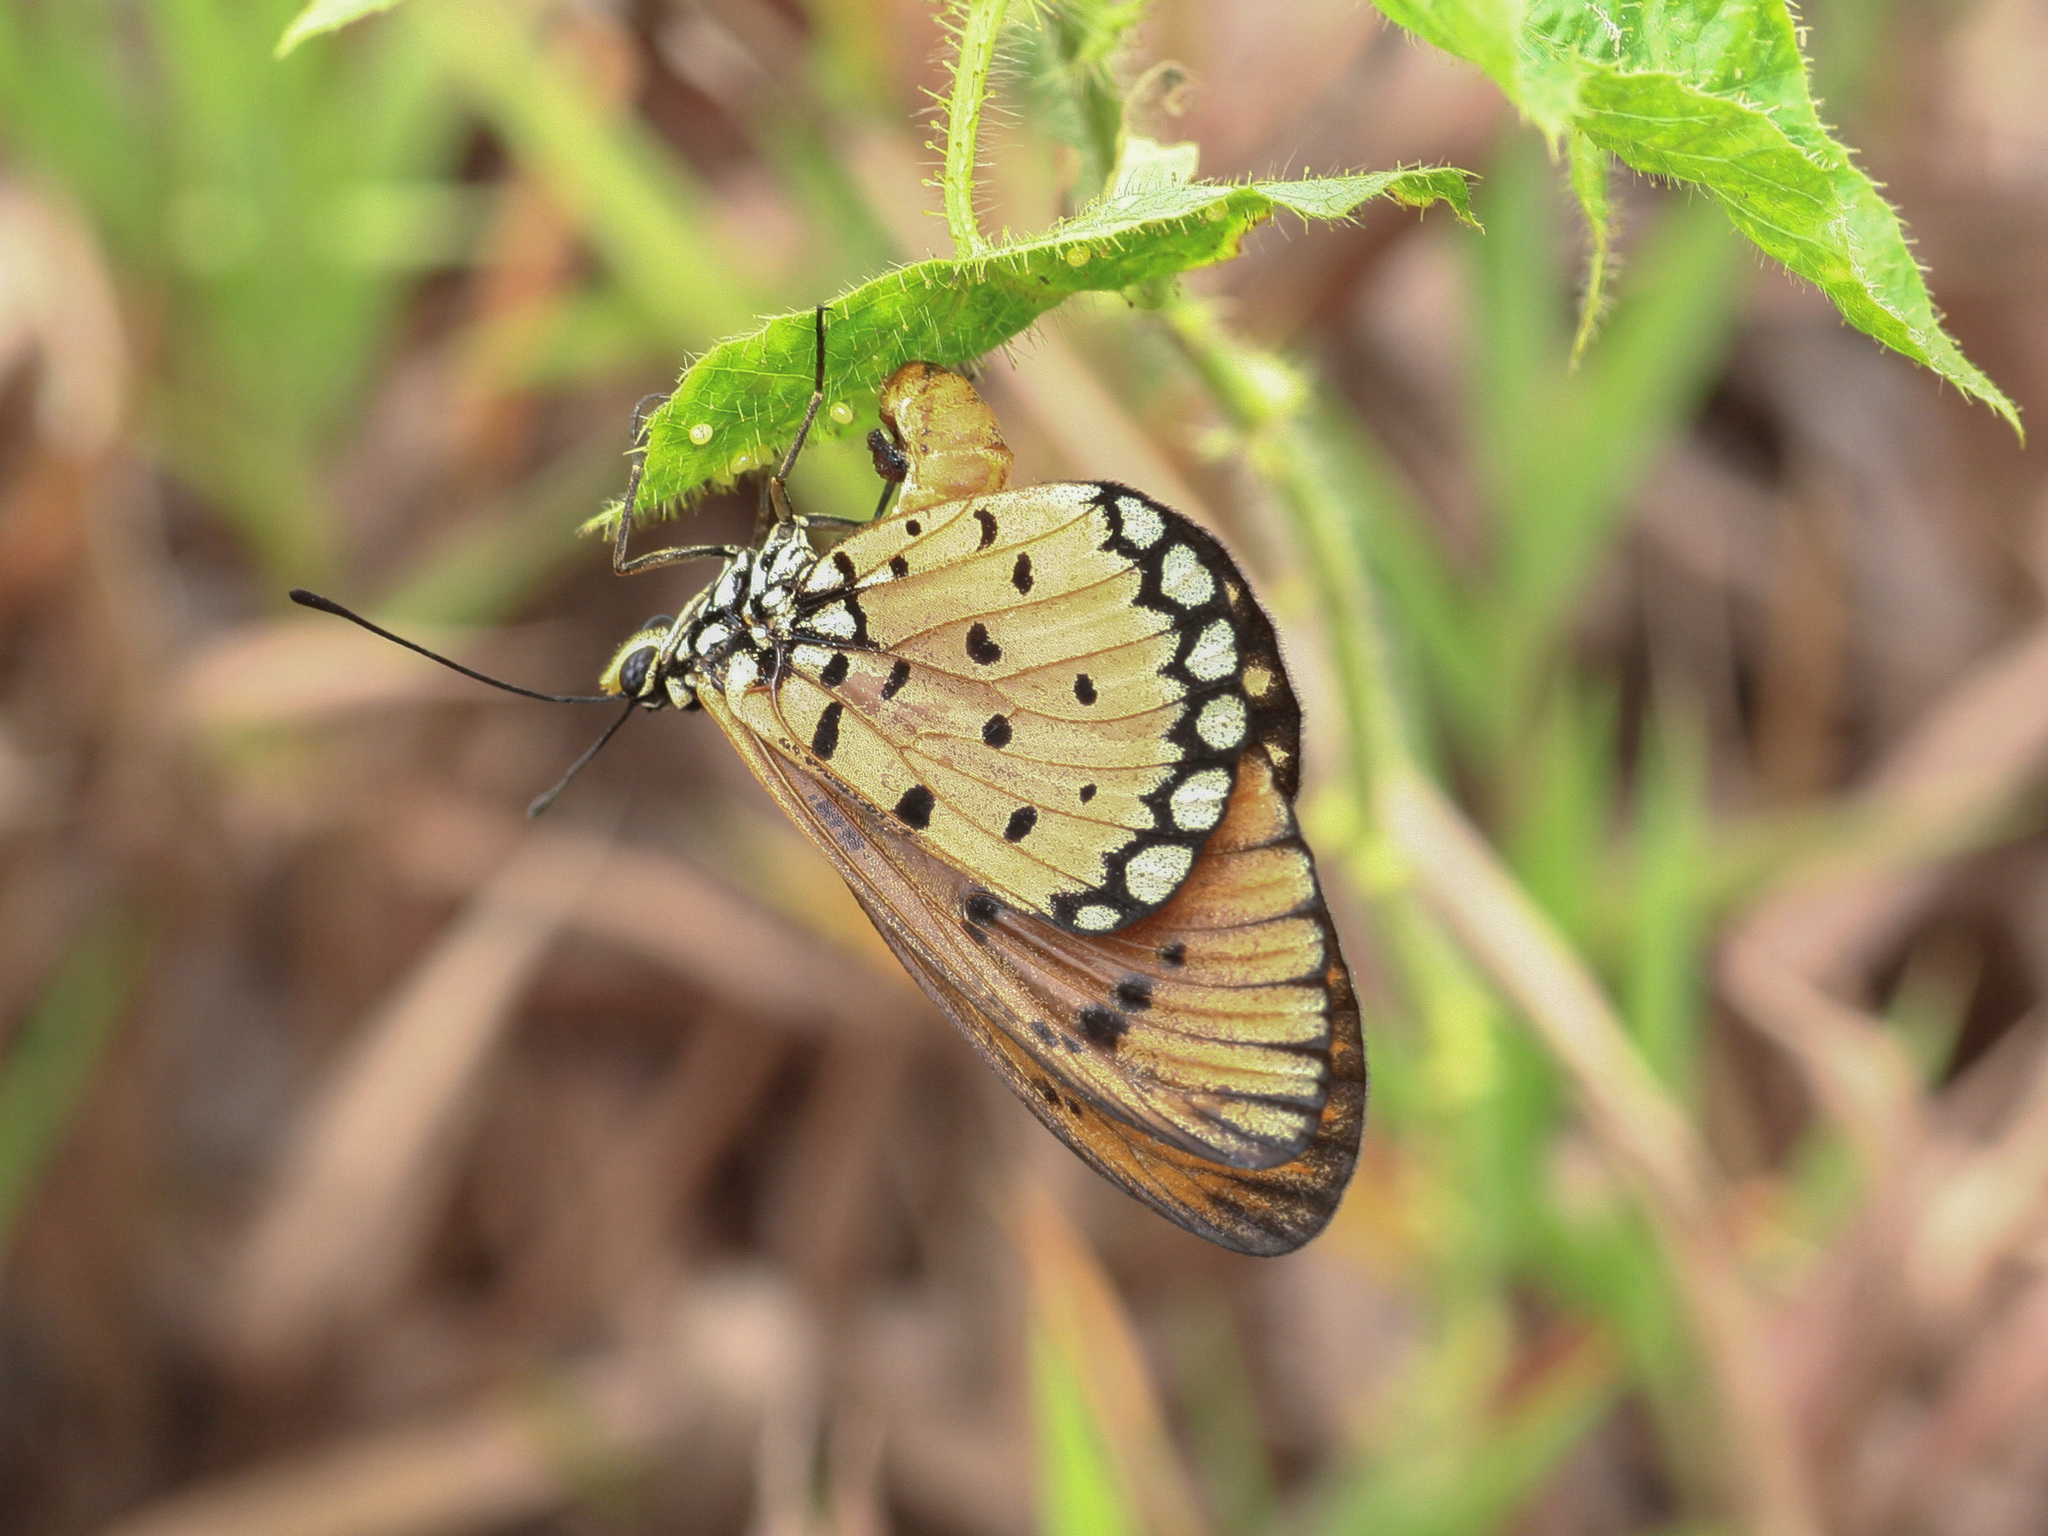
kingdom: Animalia
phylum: Arthropoda
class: Insecta
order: Lepidoptera
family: Nymphalidae
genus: Acraea
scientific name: Acraea terpsicore
